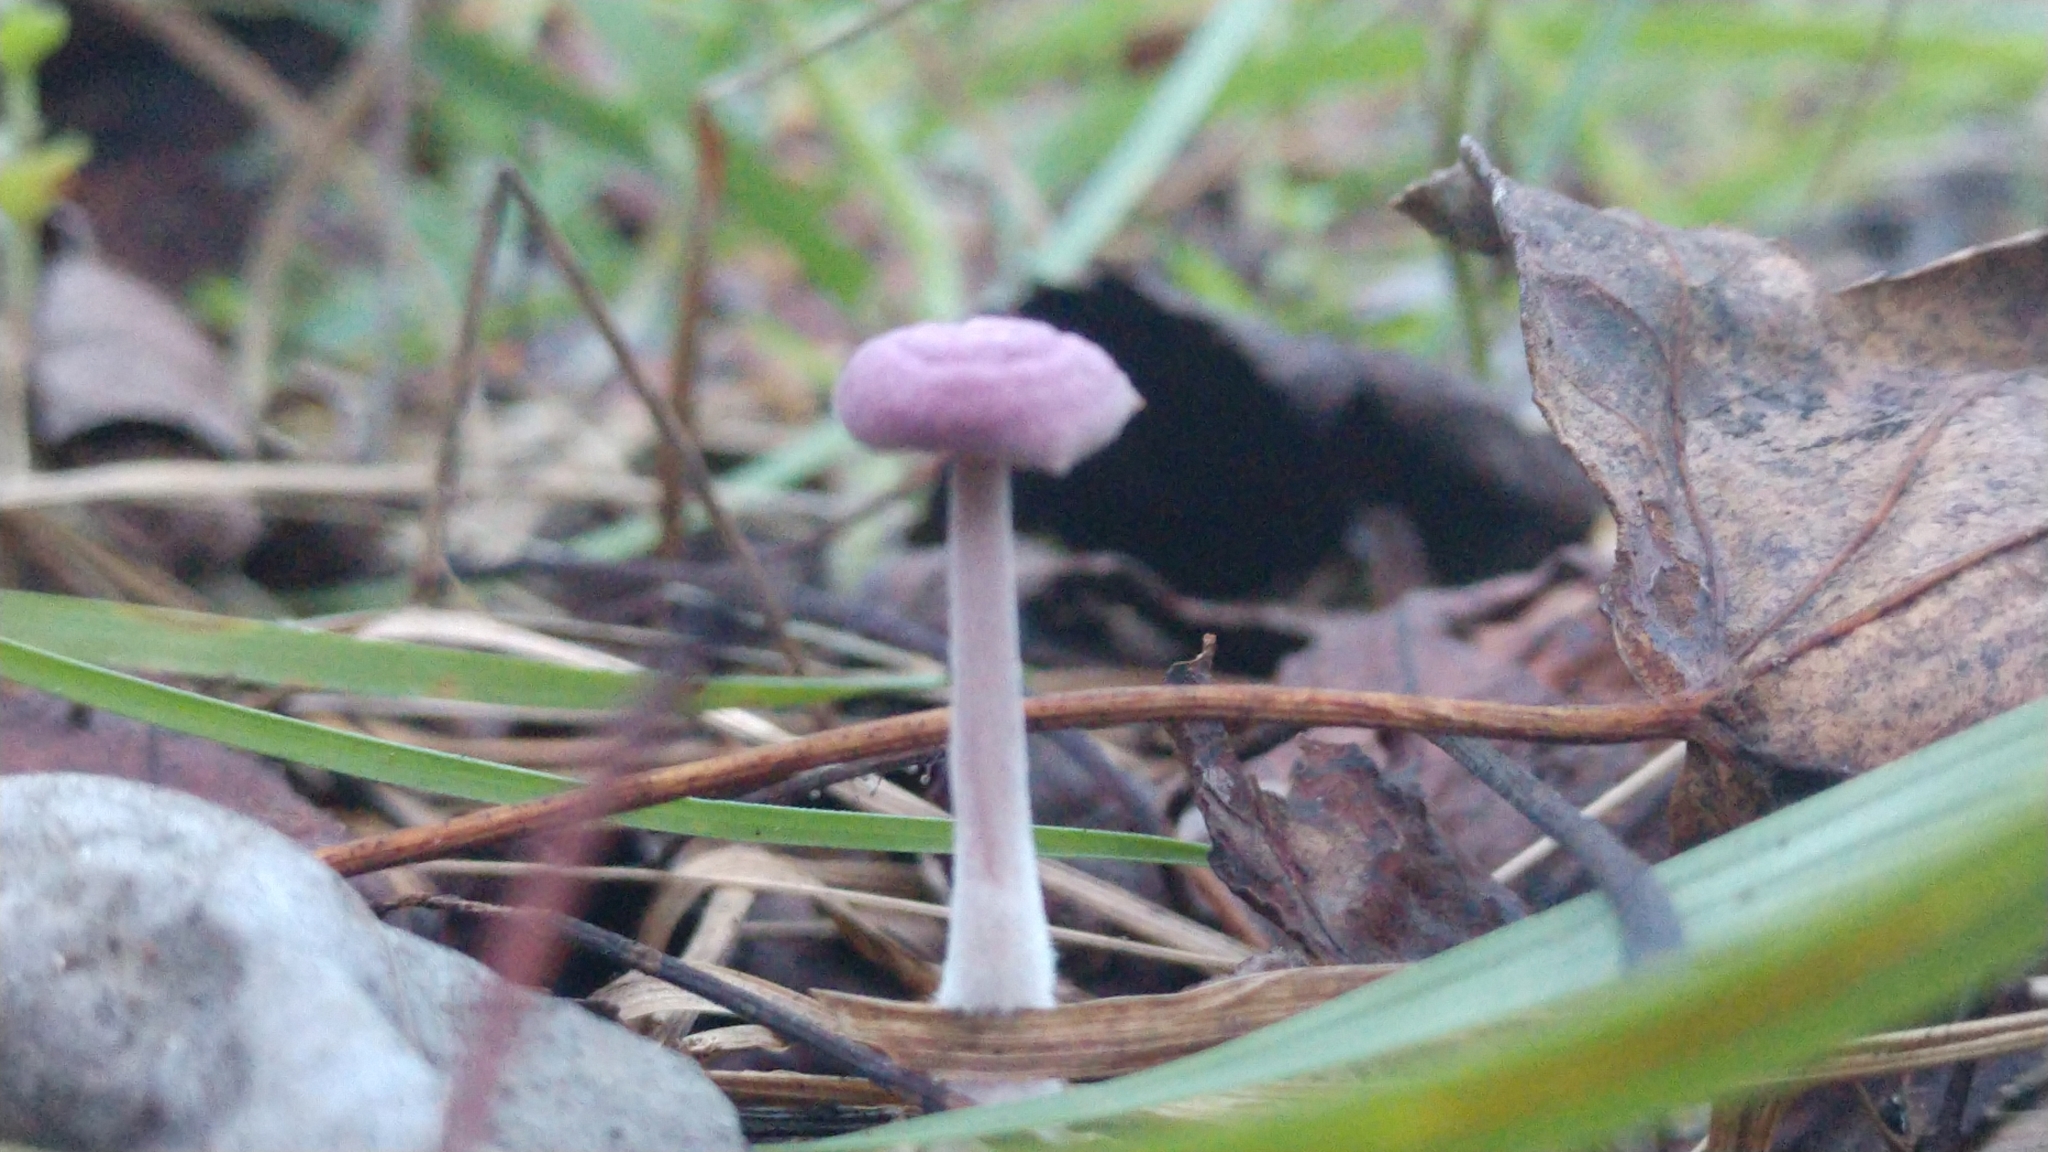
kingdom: Fungi
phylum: Basidiomycota
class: Agaricomycetes
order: Agaricales
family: Omphalotaceae
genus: Gymnopus
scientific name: Gymnopus iocephalus
